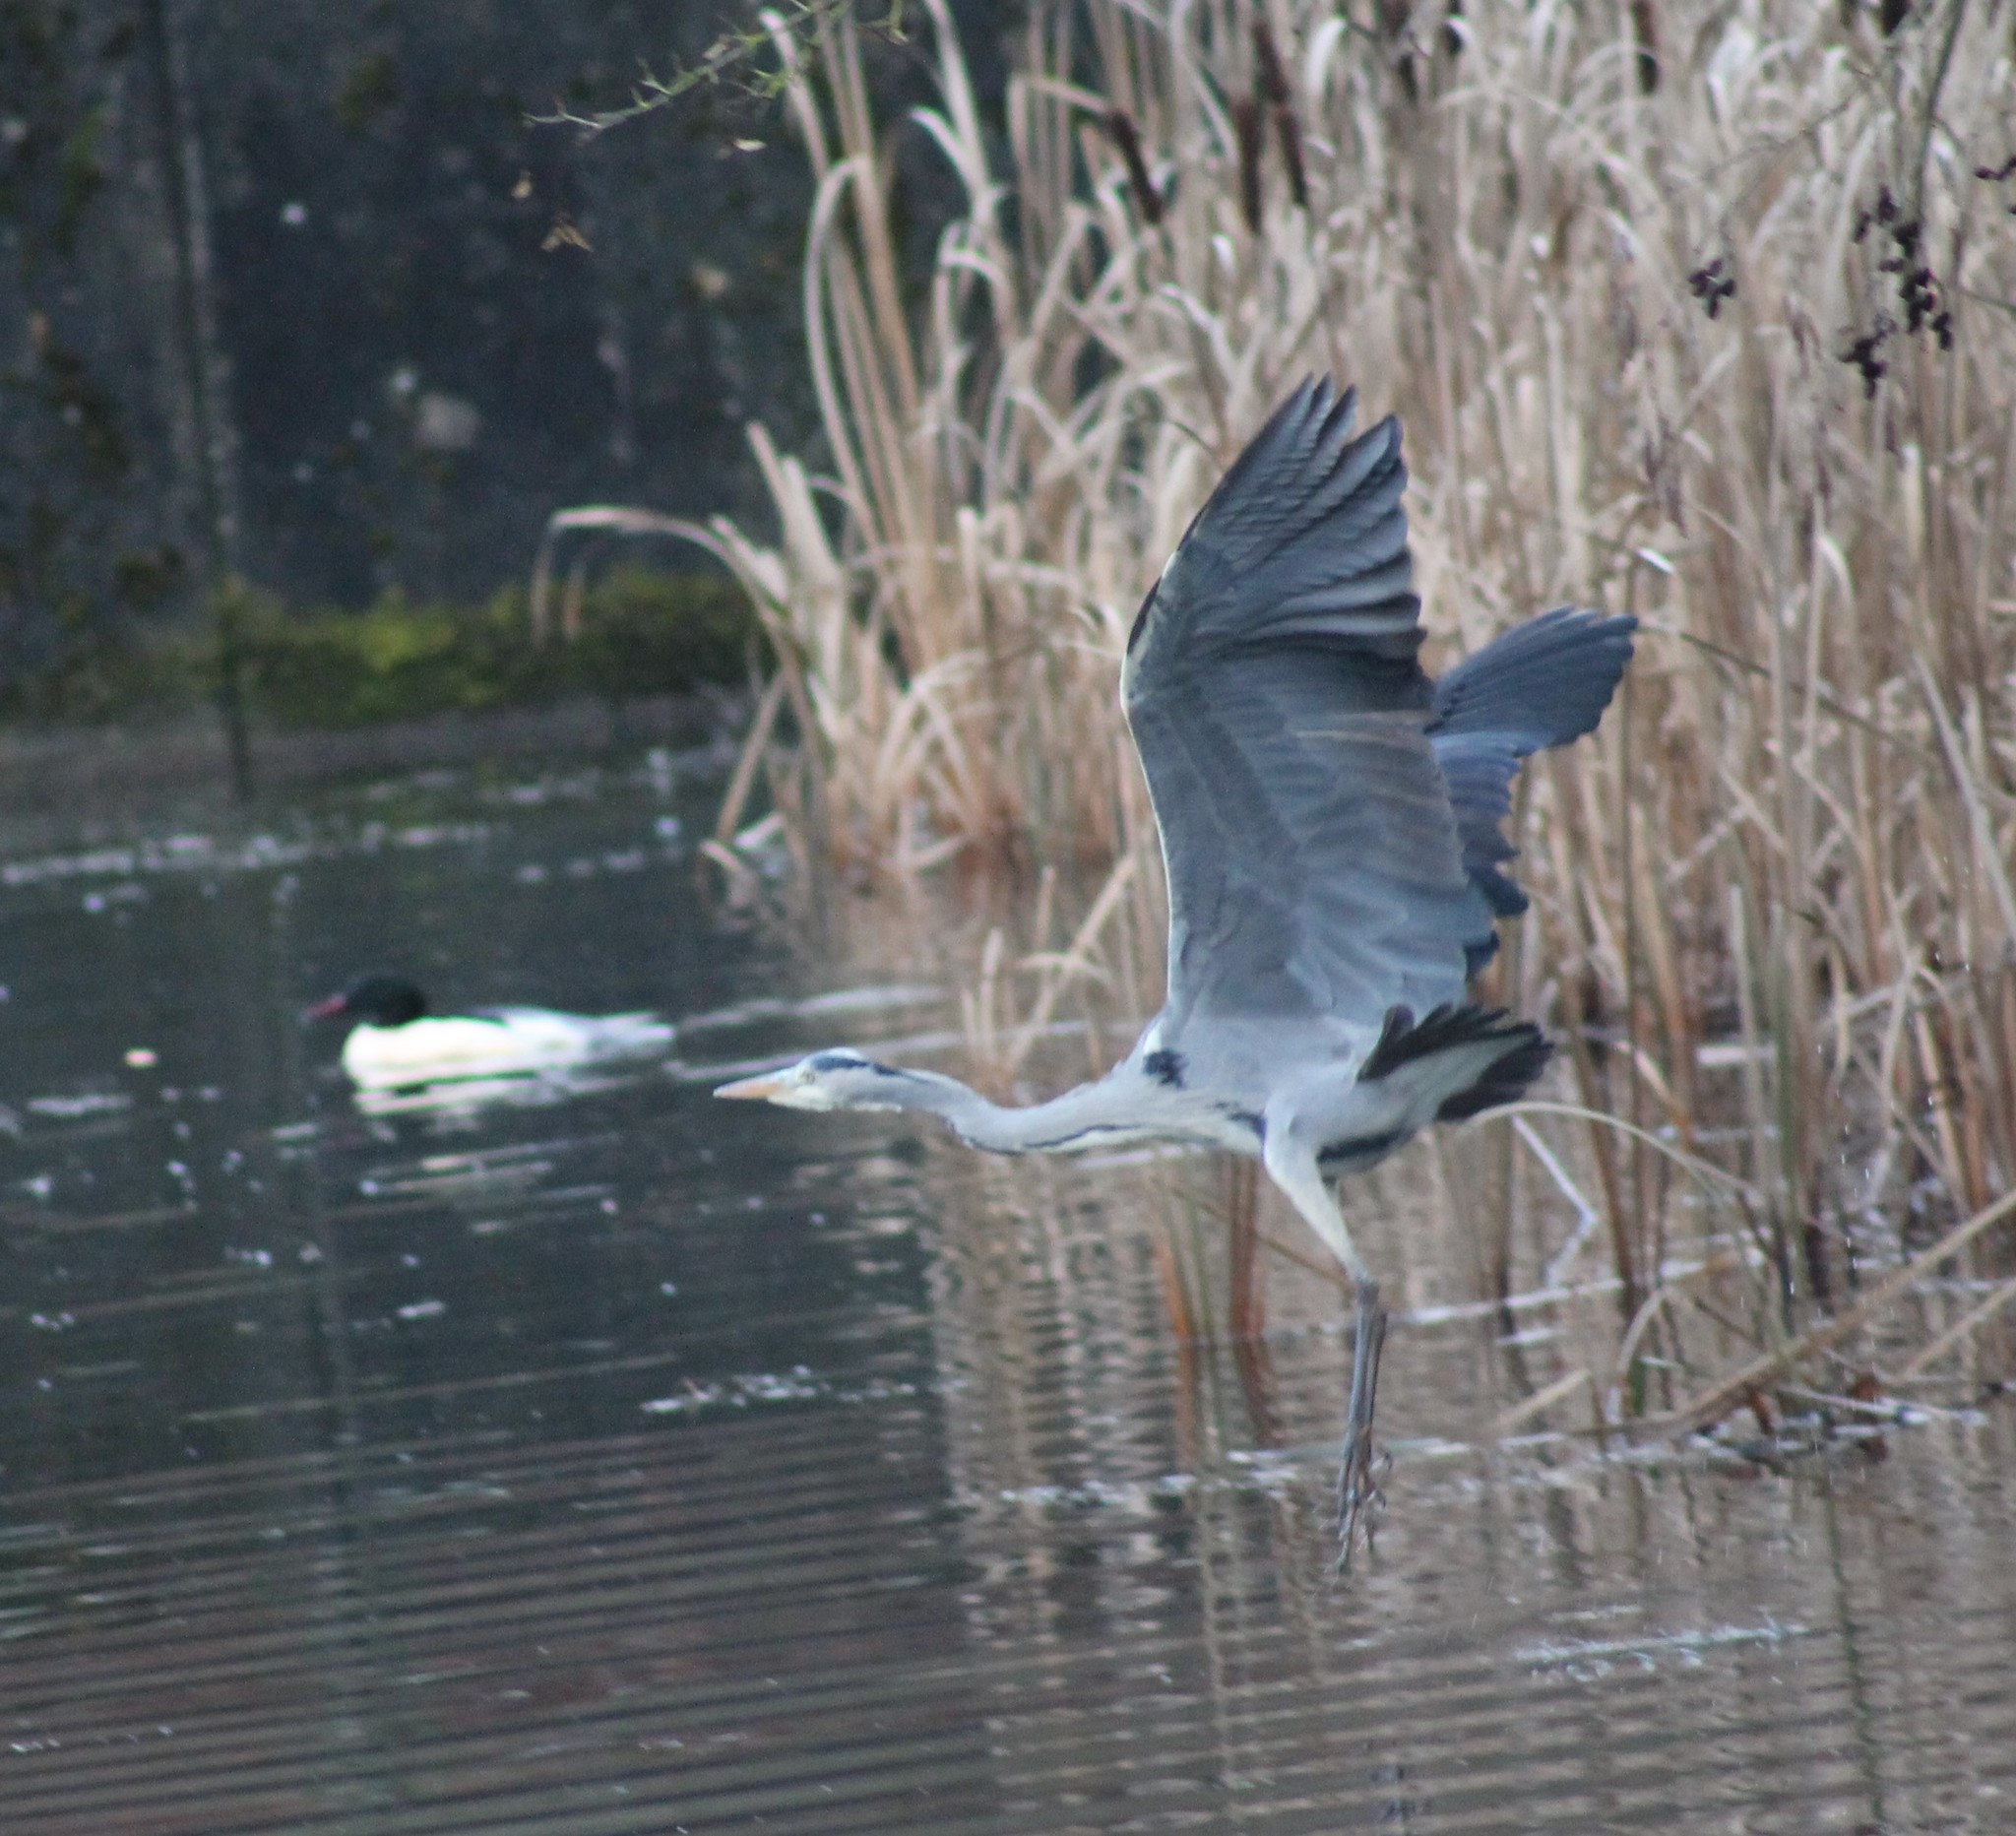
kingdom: Animalia
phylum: Chordata
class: Aves
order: Pelecaniformes
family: Ardeidae
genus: Ardea
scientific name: Ardea cinerea
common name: Grey heron
